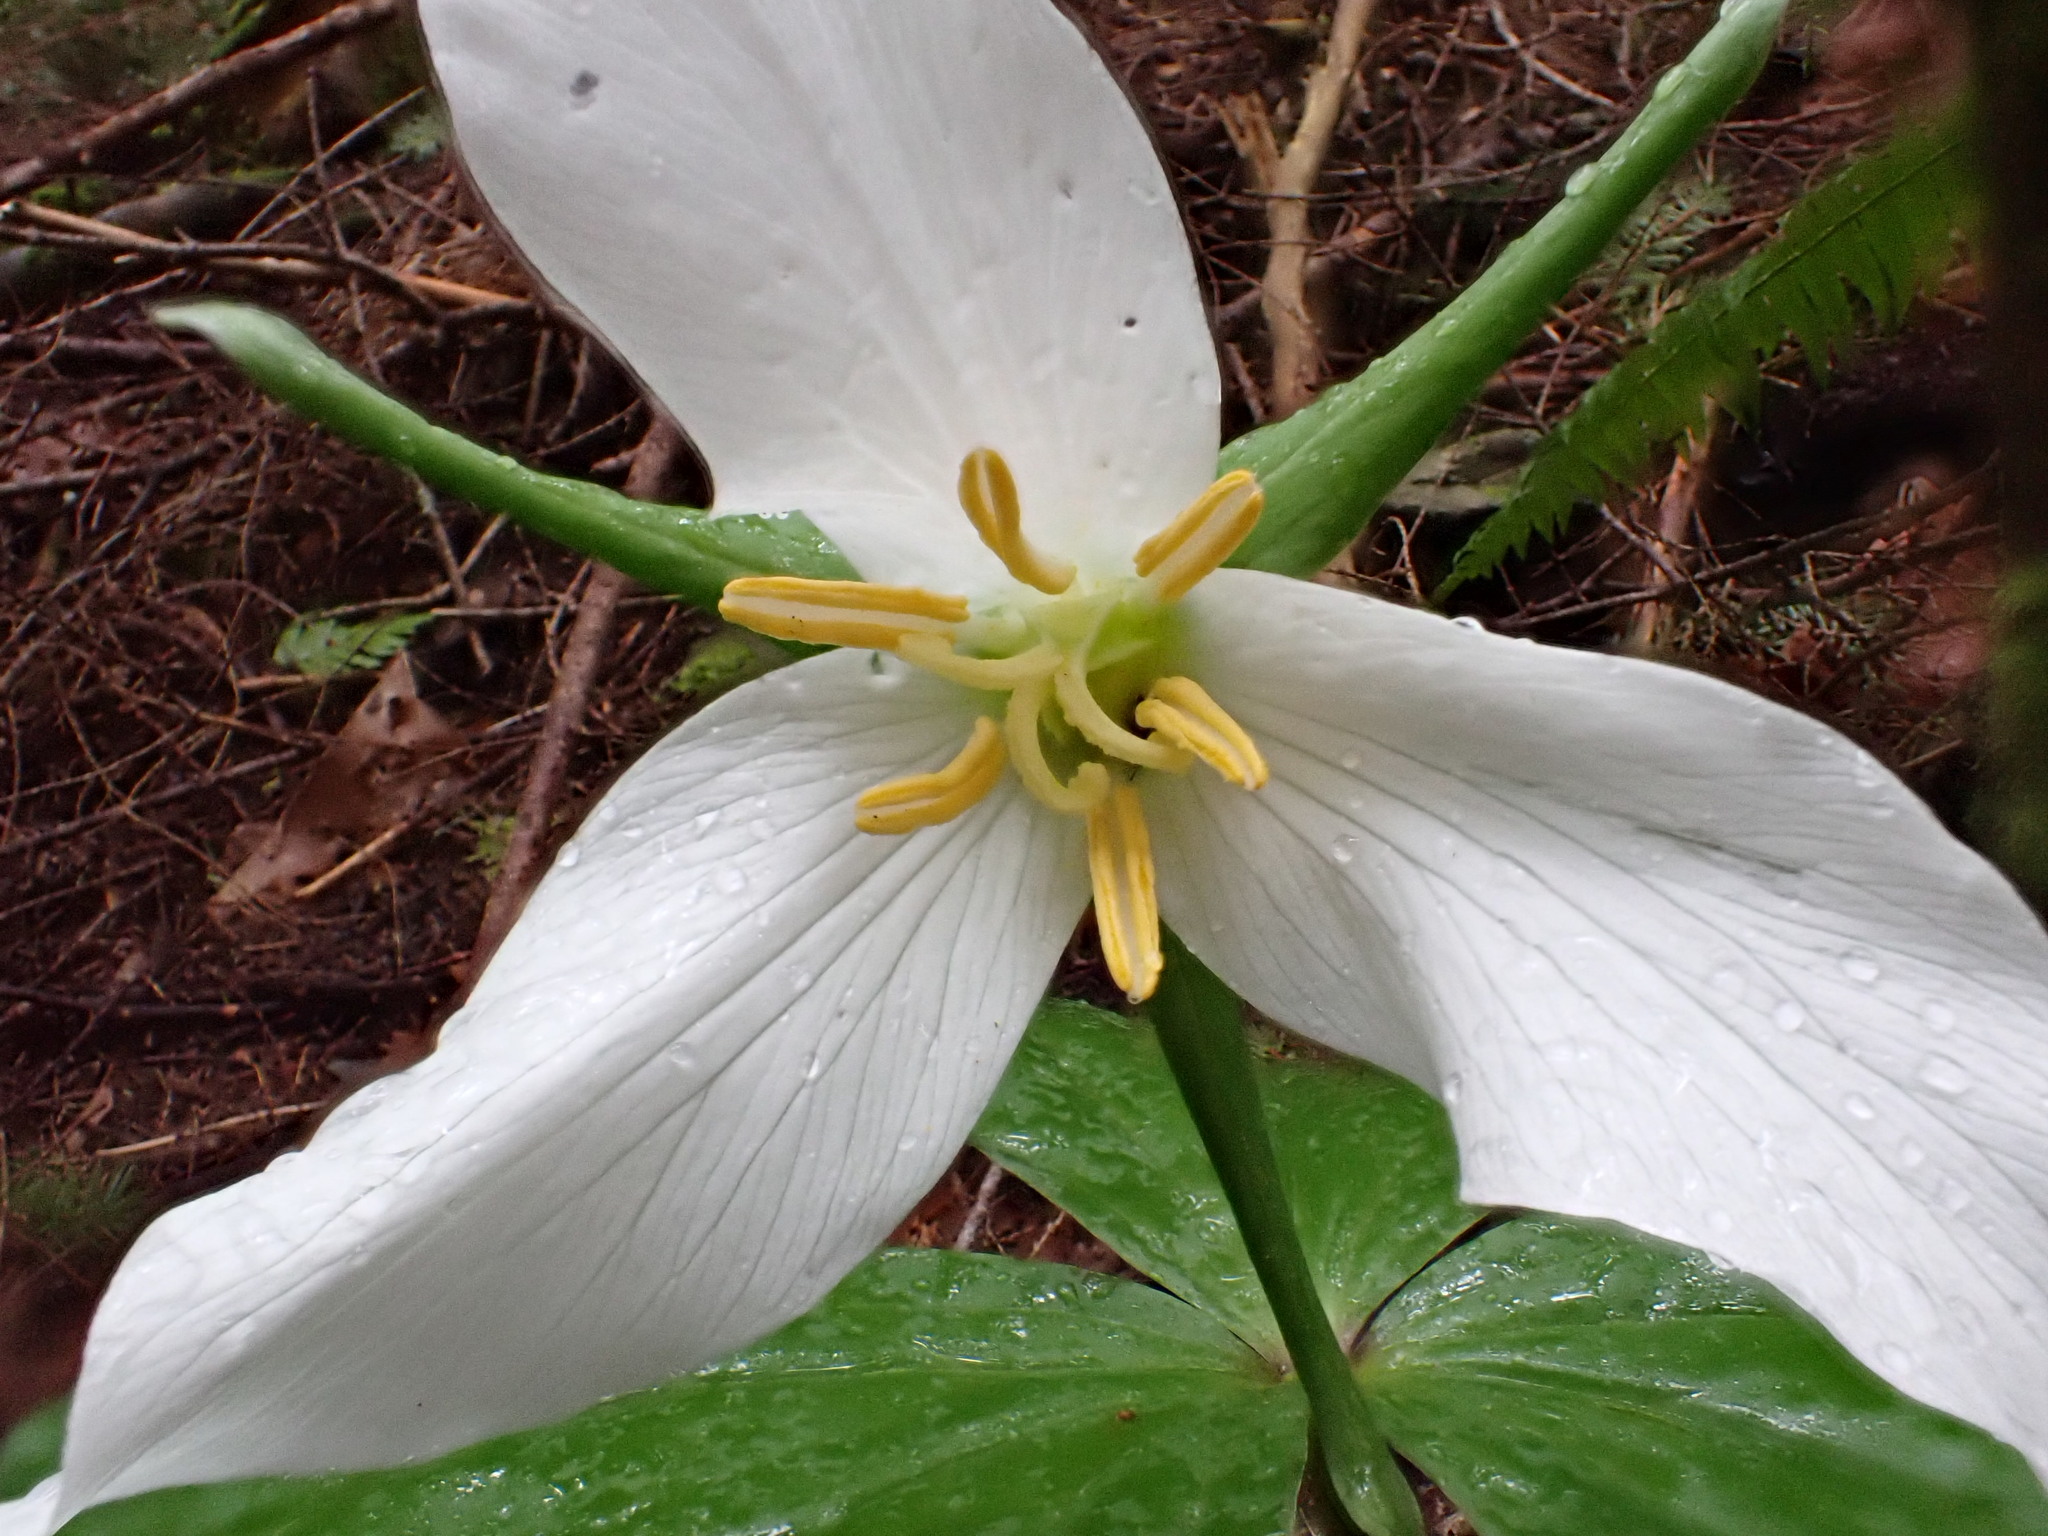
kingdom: Plantae
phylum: Tracheophyta
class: Liliopsida
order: Liliales
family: Melanthiaceae
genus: Trillium
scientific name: Trillium ovatum
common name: Pacific trillium
